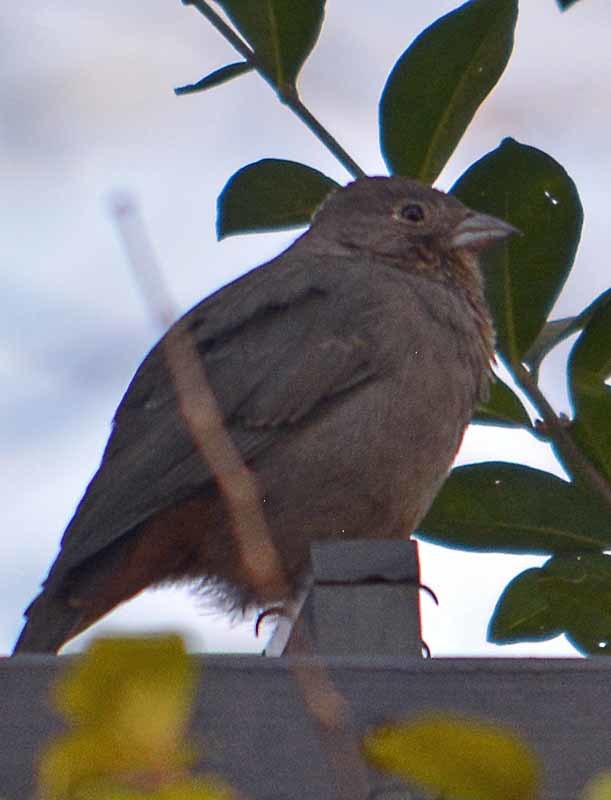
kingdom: Animalia
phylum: Chordata
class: Aves
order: Passeriformes
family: Passerellidae
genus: Melozone
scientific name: Melozone fusca
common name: Canyon towhee
